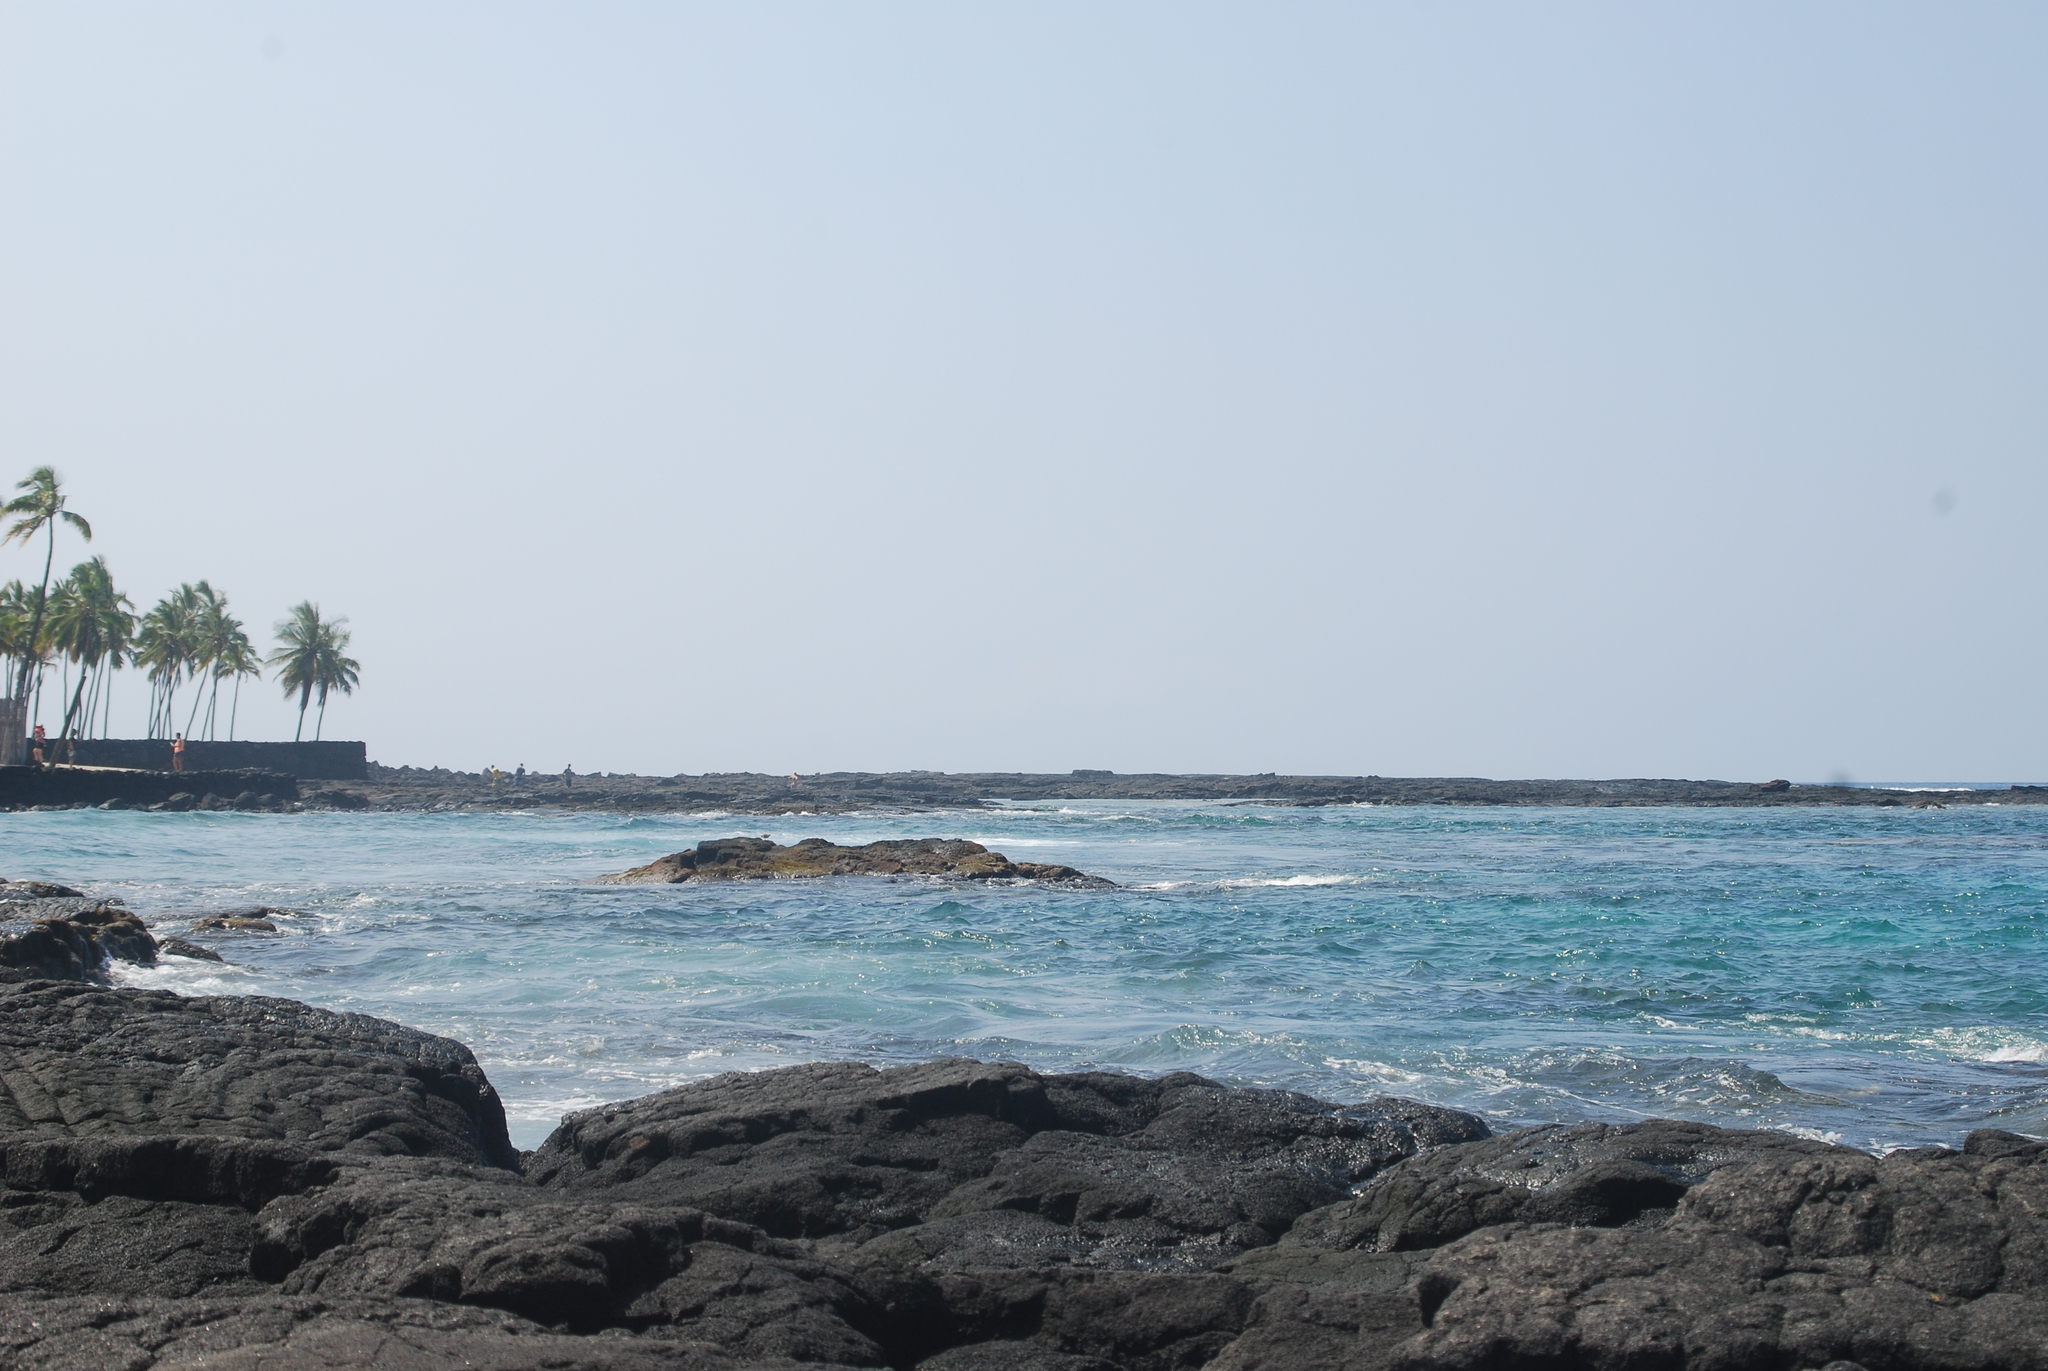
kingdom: Plantae
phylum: Tracheophyta
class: Liliopsida
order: Arecales
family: Arecaceae
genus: Cocos
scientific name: Cocos nucifera
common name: Coconut palm
